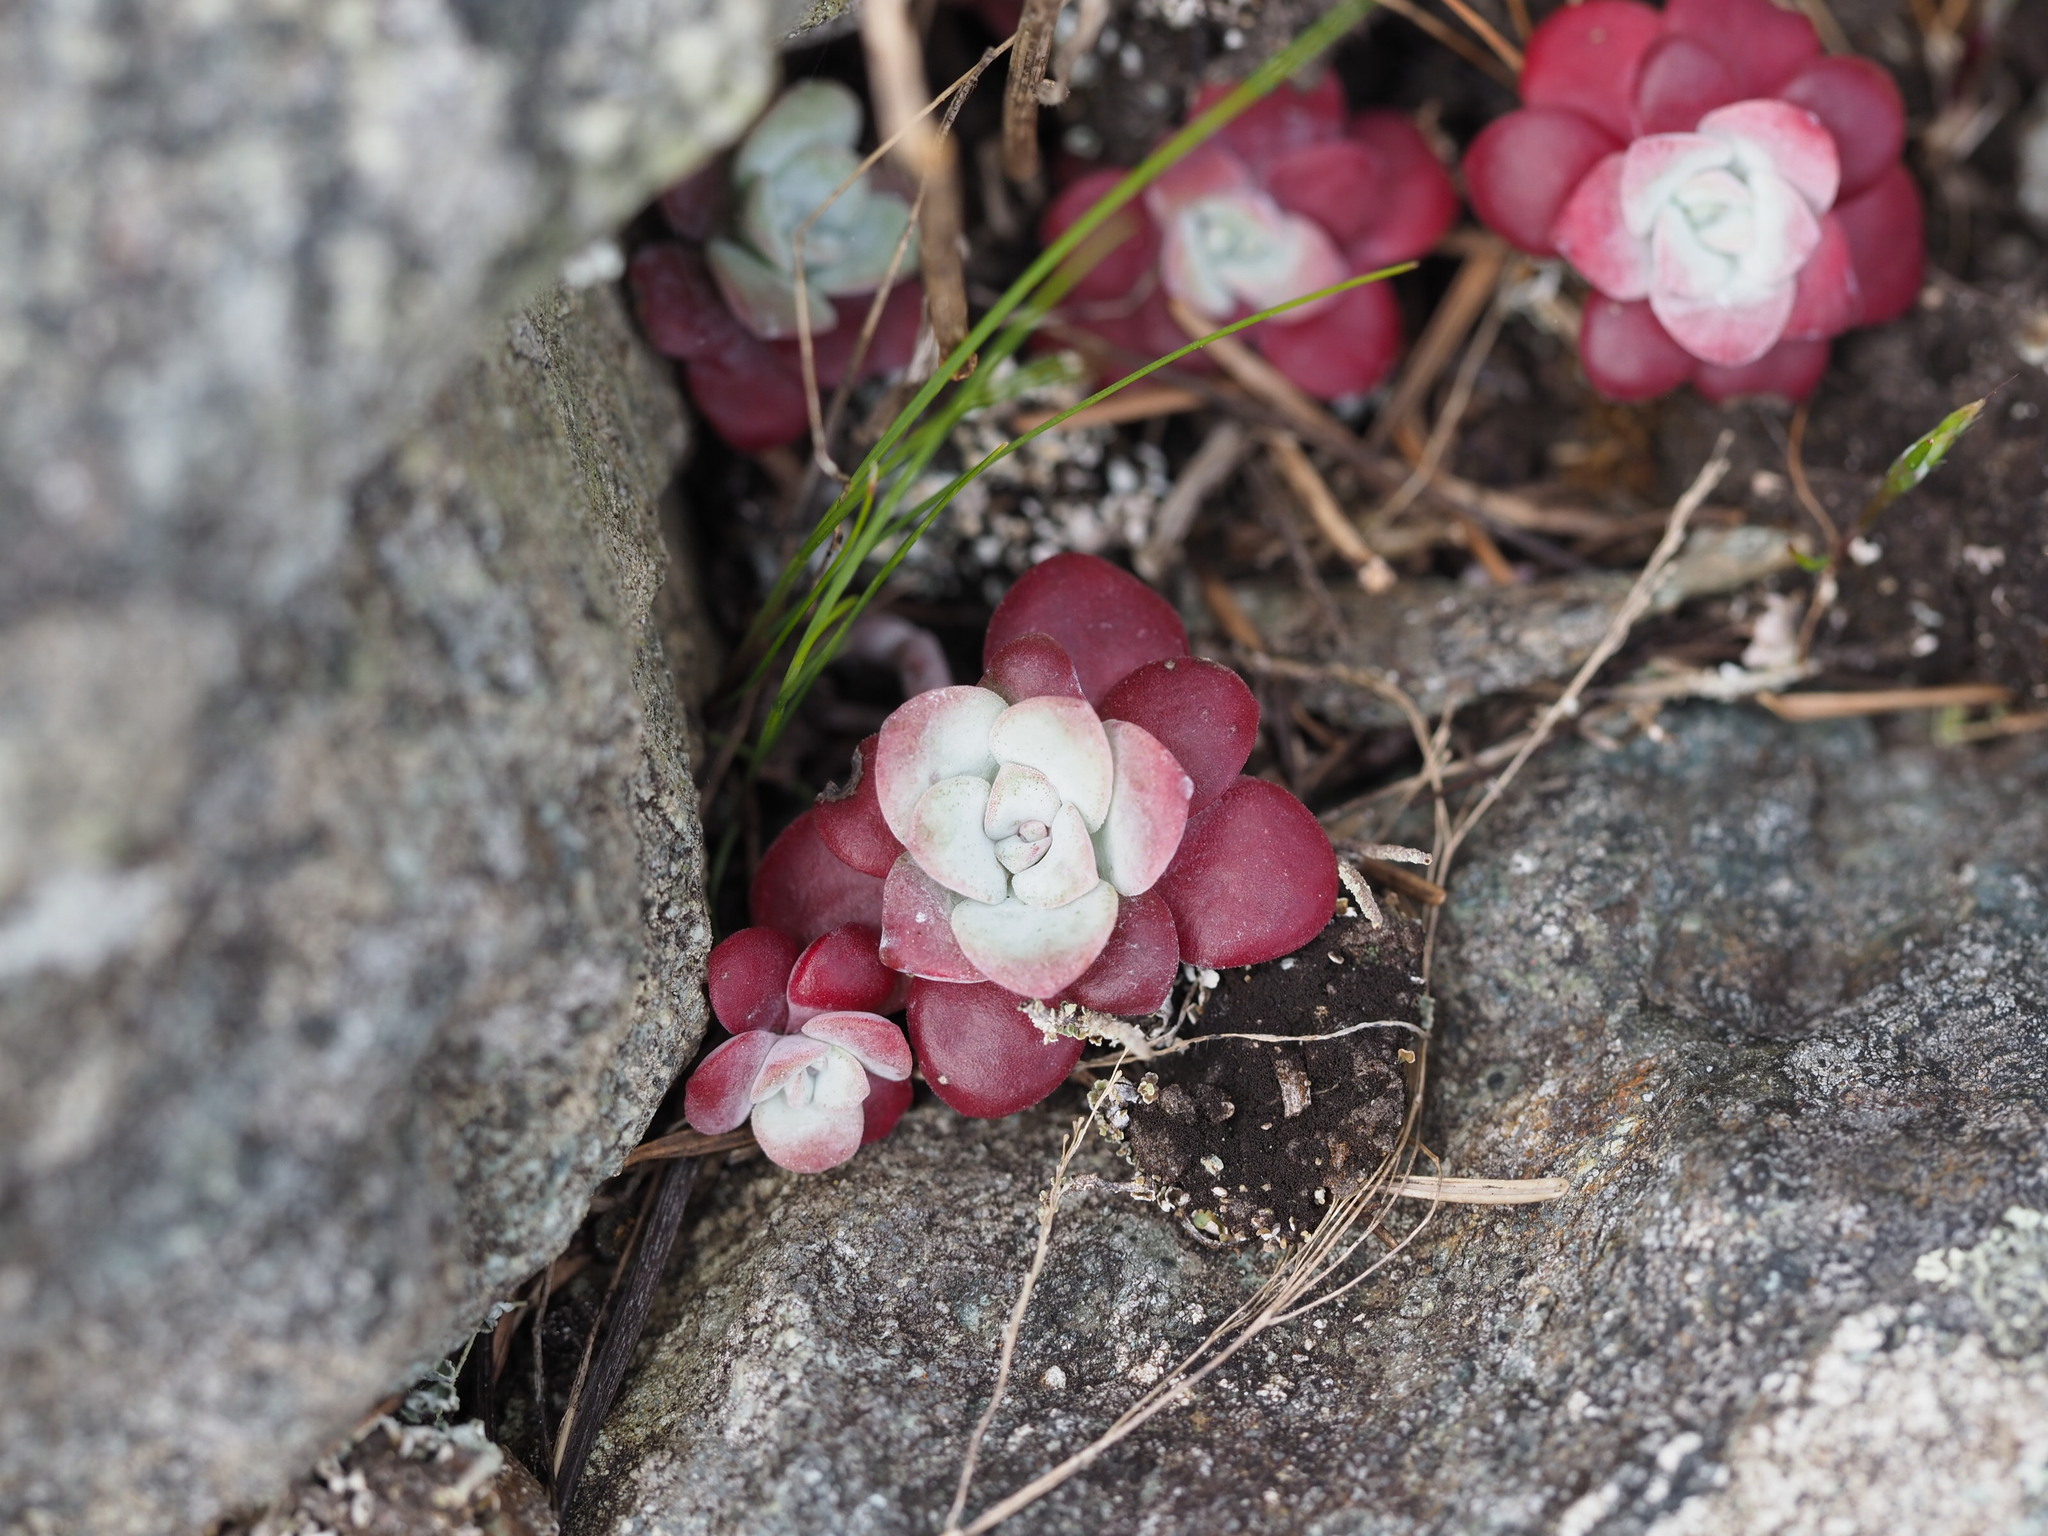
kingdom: Plantae
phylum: Tracheophyta
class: Magnoliopsida
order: Saxifragales
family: Crassulaceae
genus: Sedum
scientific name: Sedum spathulifolium
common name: Colorado stonecrop
